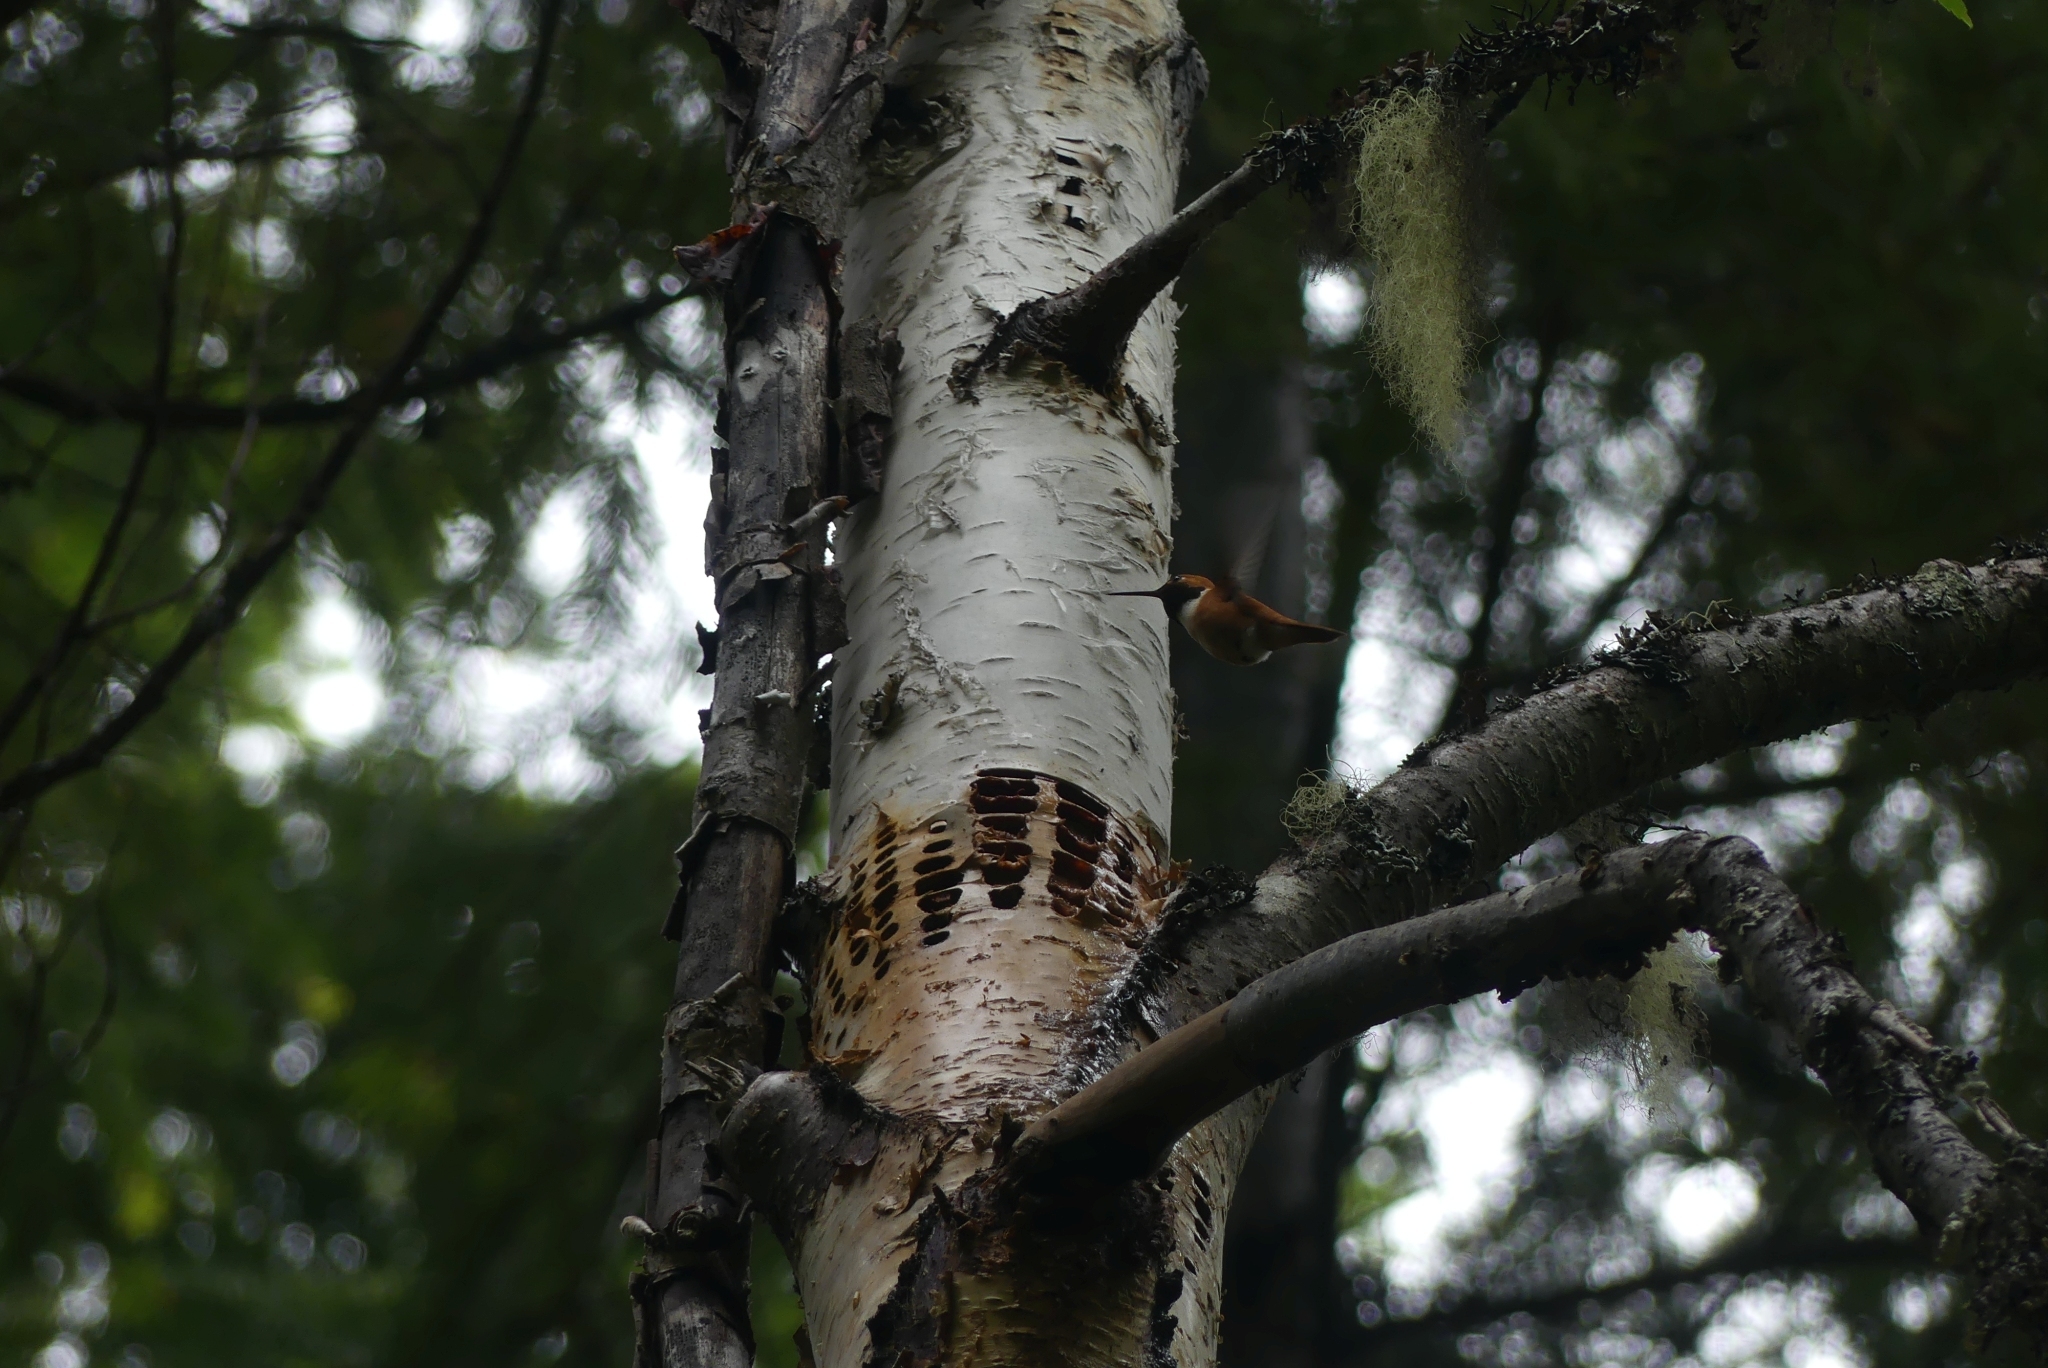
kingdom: Animalia
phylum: Chordata
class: Aves
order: Apodiformes
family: Trochilidae
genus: Selasphorus
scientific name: Selasphorus rufus
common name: Rufous hummingbird
